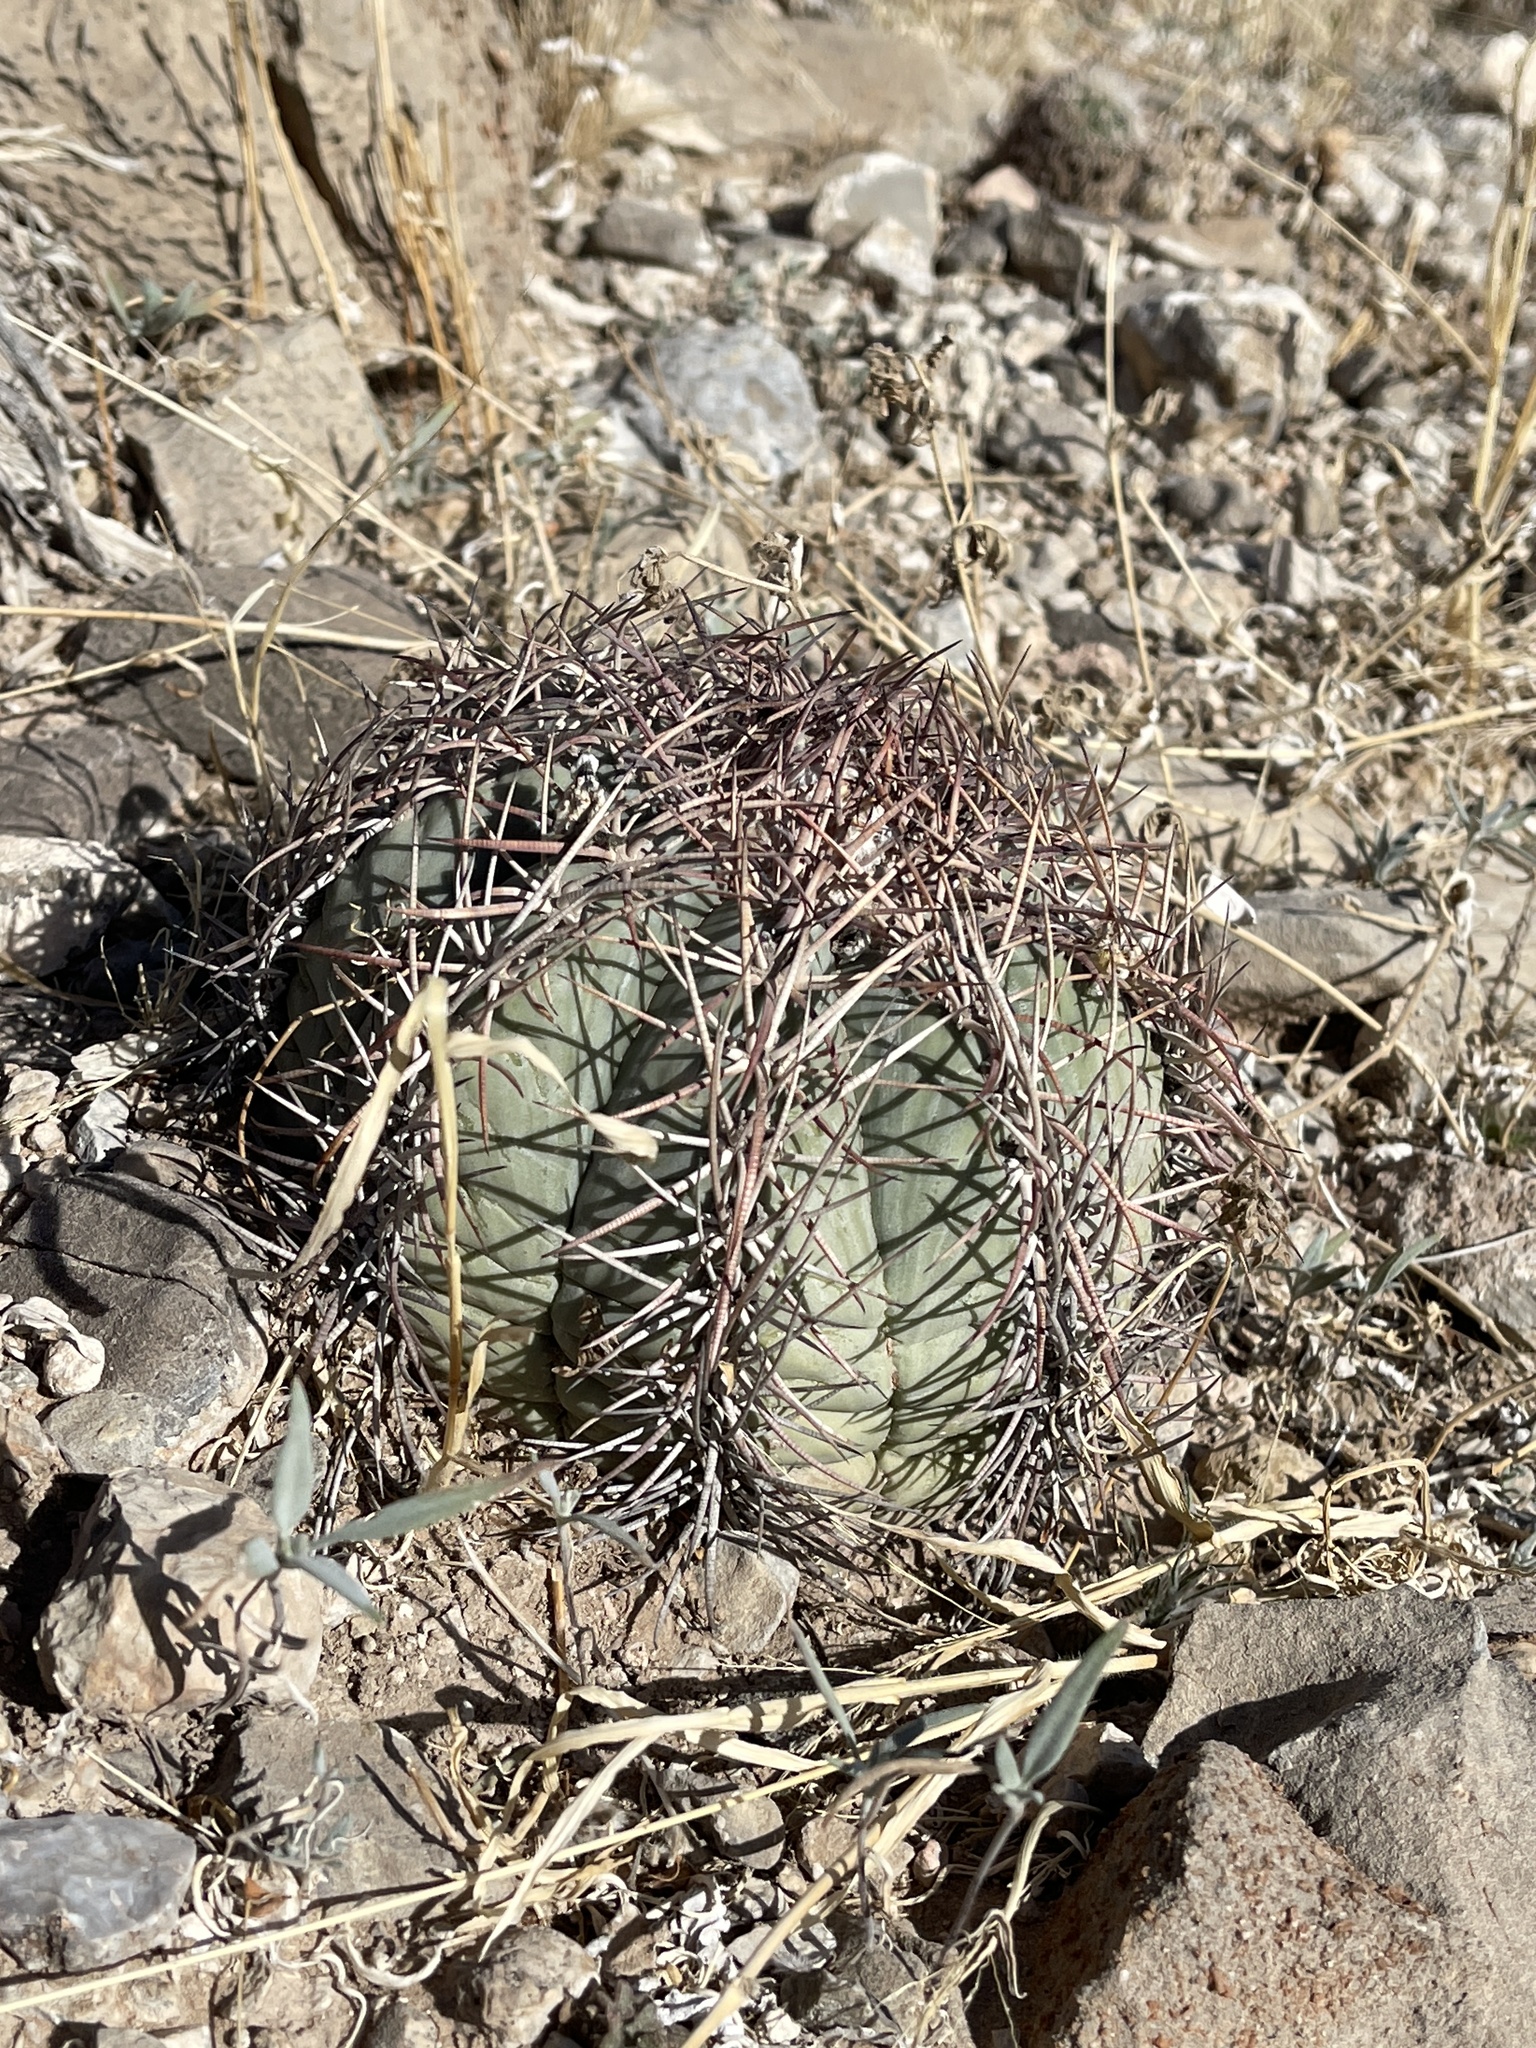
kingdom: Plantae
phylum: Tracheophyta
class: Magnoliopsida
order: Caryophyllales
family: Cactaceae
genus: Echinocactus
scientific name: Echinocactus horizonthalonius
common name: Devilshead
